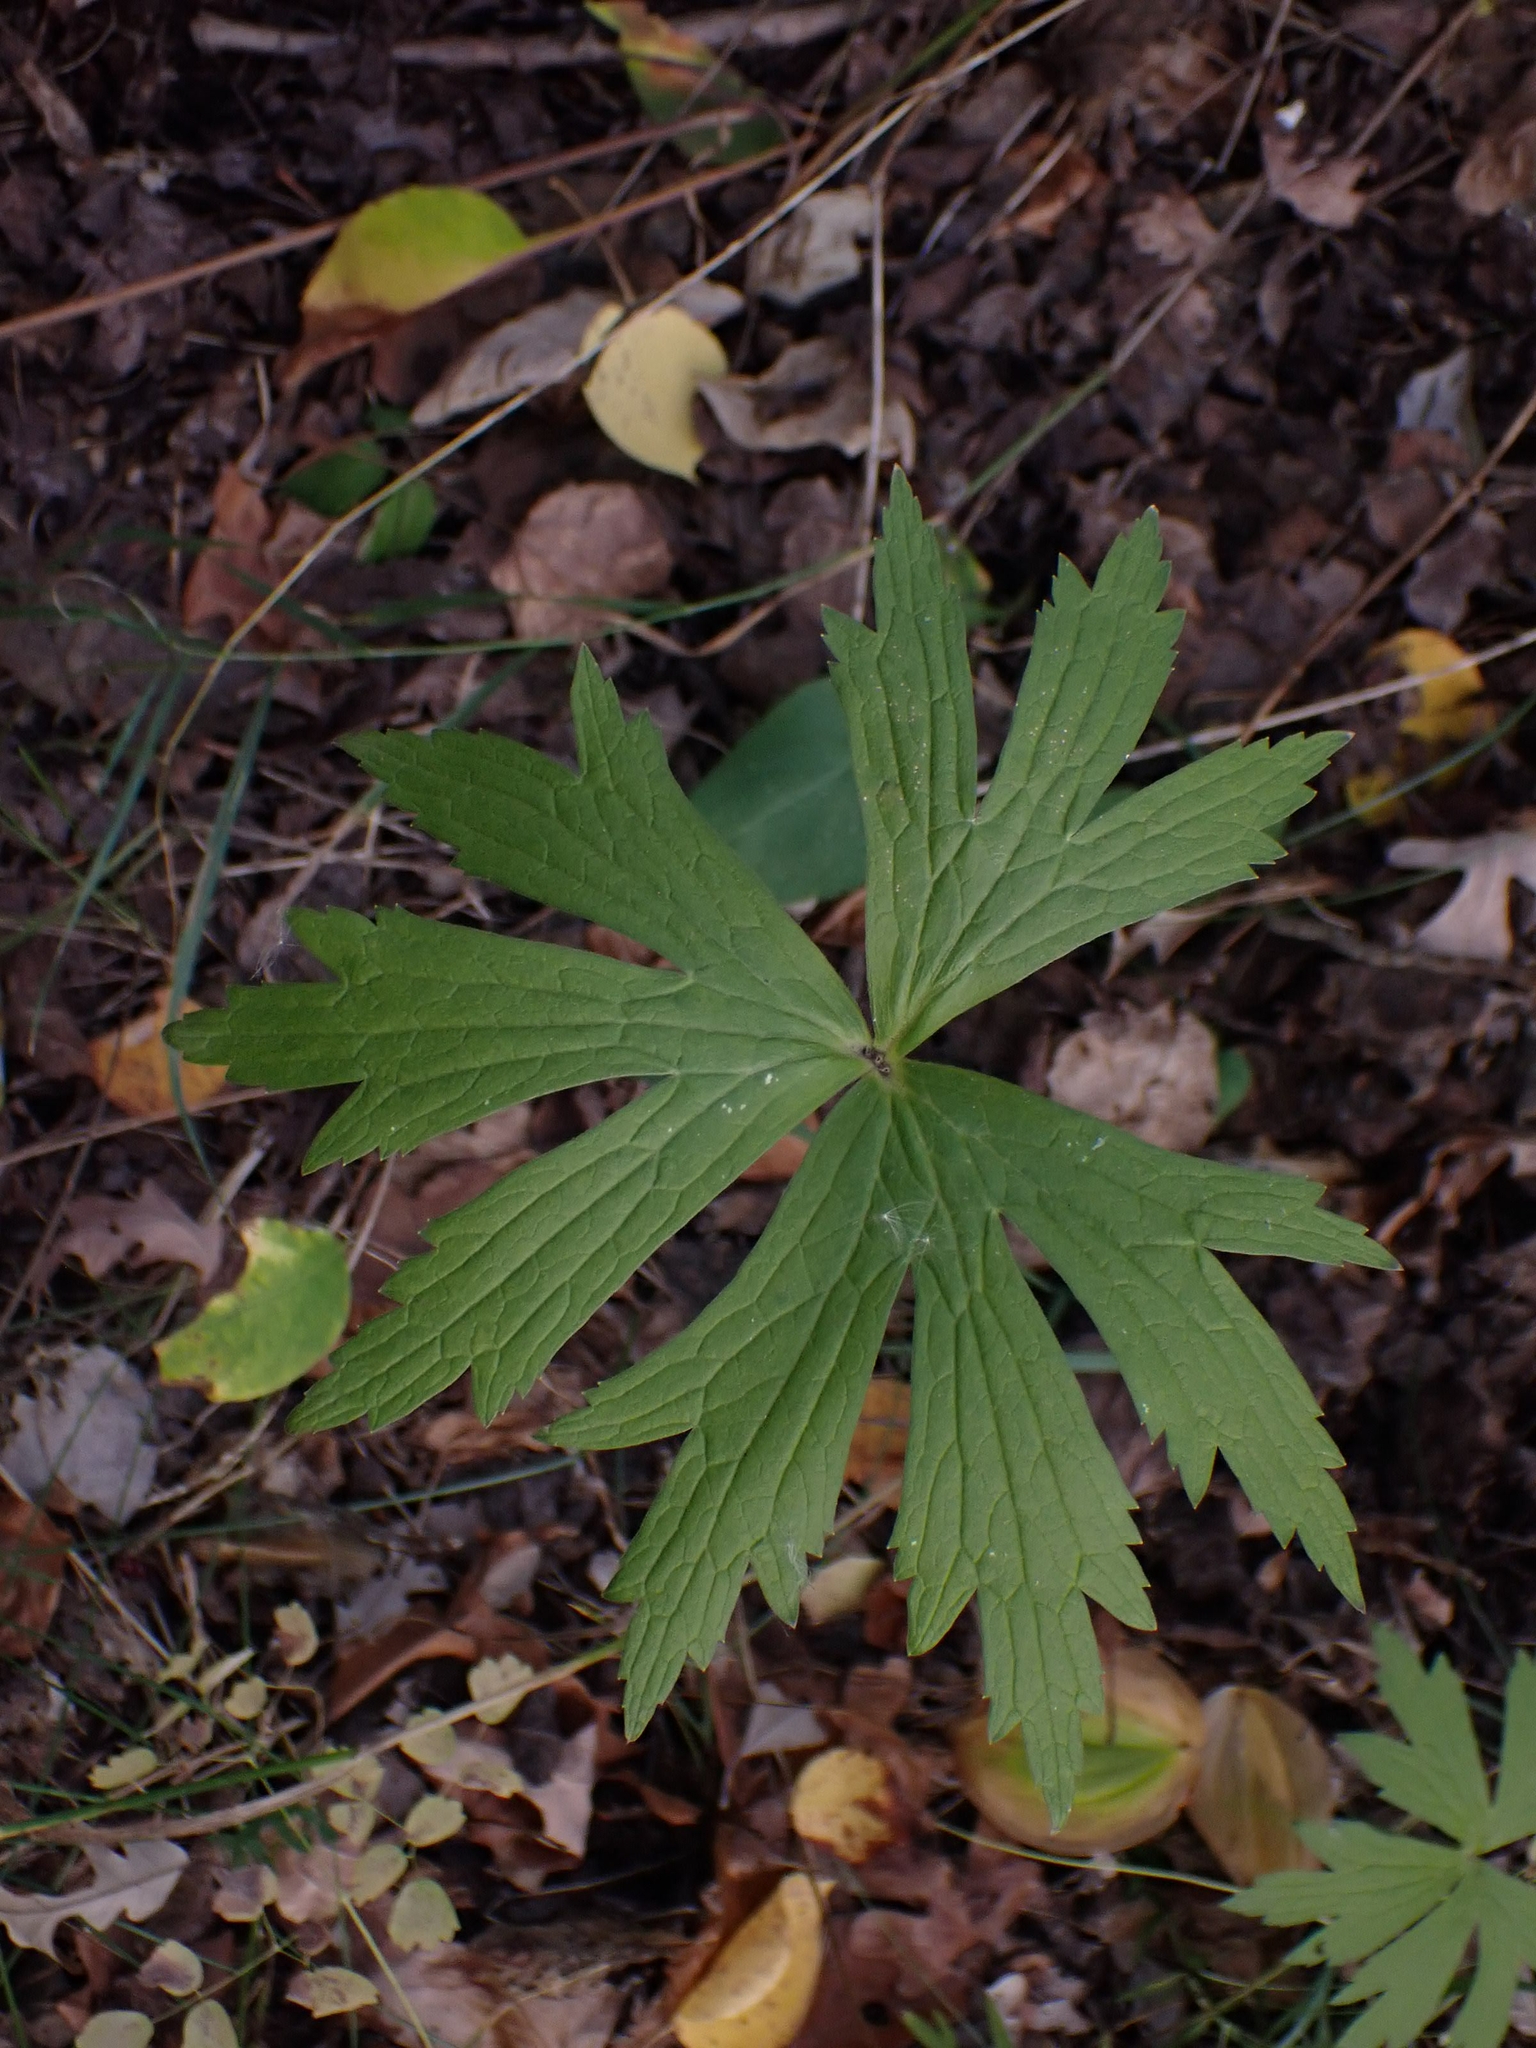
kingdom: Plantae
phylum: Tracheophyta
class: Magnoliopsida
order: Ranunculales
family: Ranunculaceae
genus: Anemonastrum
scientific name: Anemonastrum canadense
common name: Canada anemone
